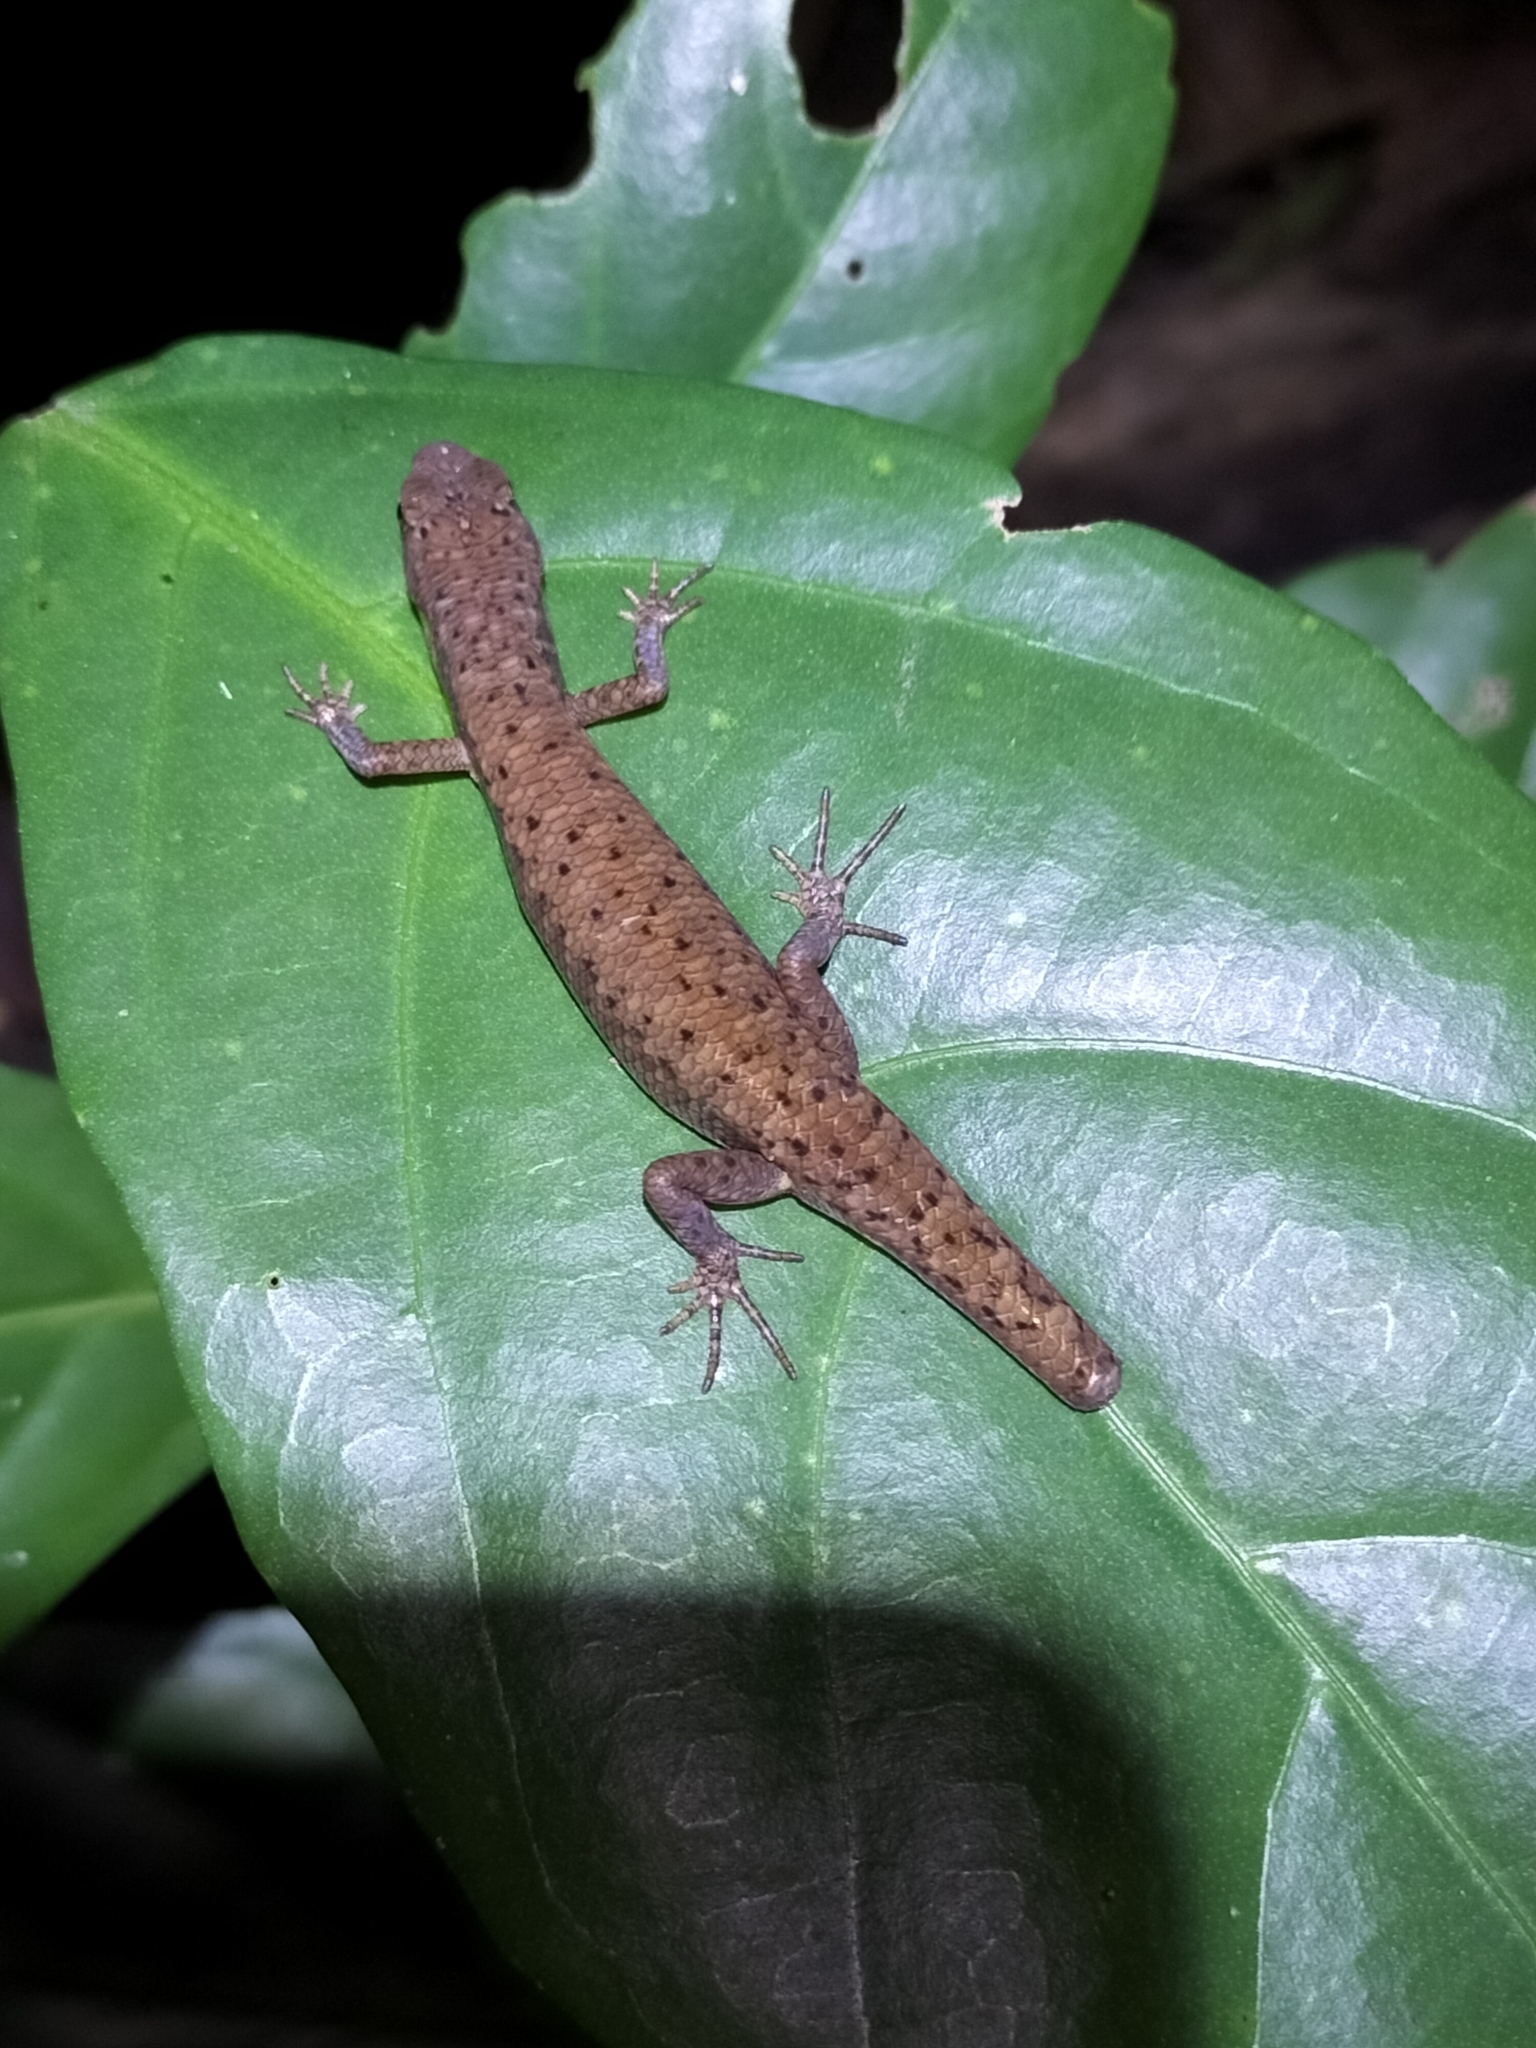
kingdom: Animalia
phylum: Chordata
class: Squamata
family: Scincidae
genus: Saproscincus
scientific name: Saproscincus basiliscus
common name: Pale-lipped shadeskink
